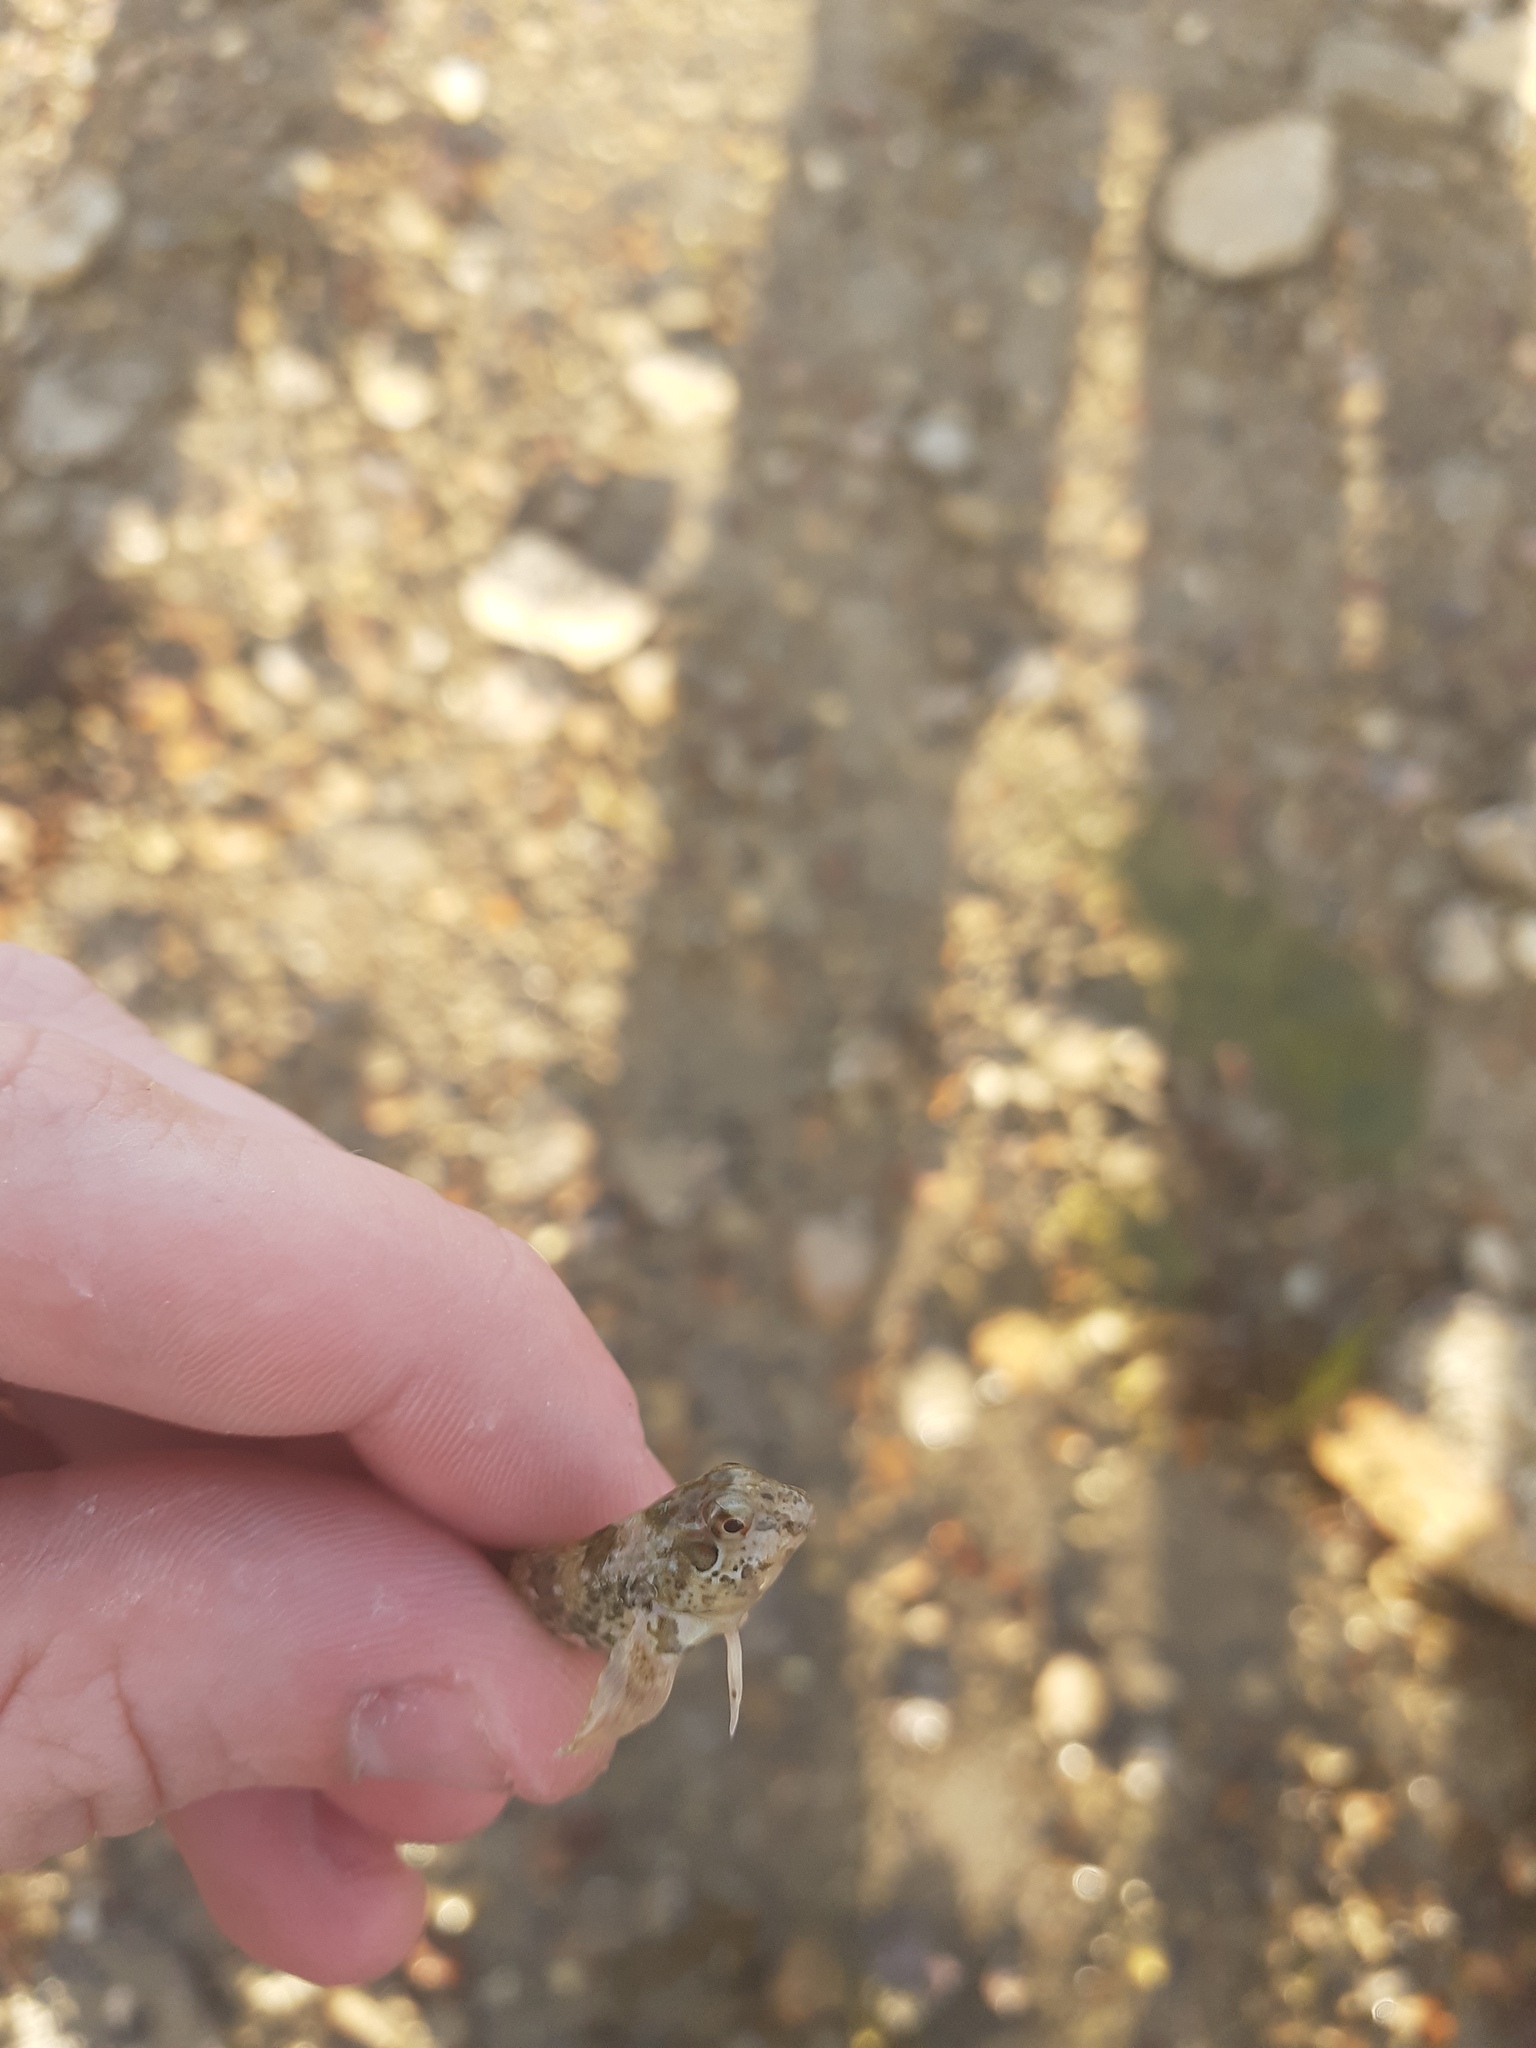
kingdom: Animalia
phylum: Chordata
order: Perciformes
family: Blenniidae
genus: Lipophrys
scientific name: Lipophrys pholis
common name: Shanny
